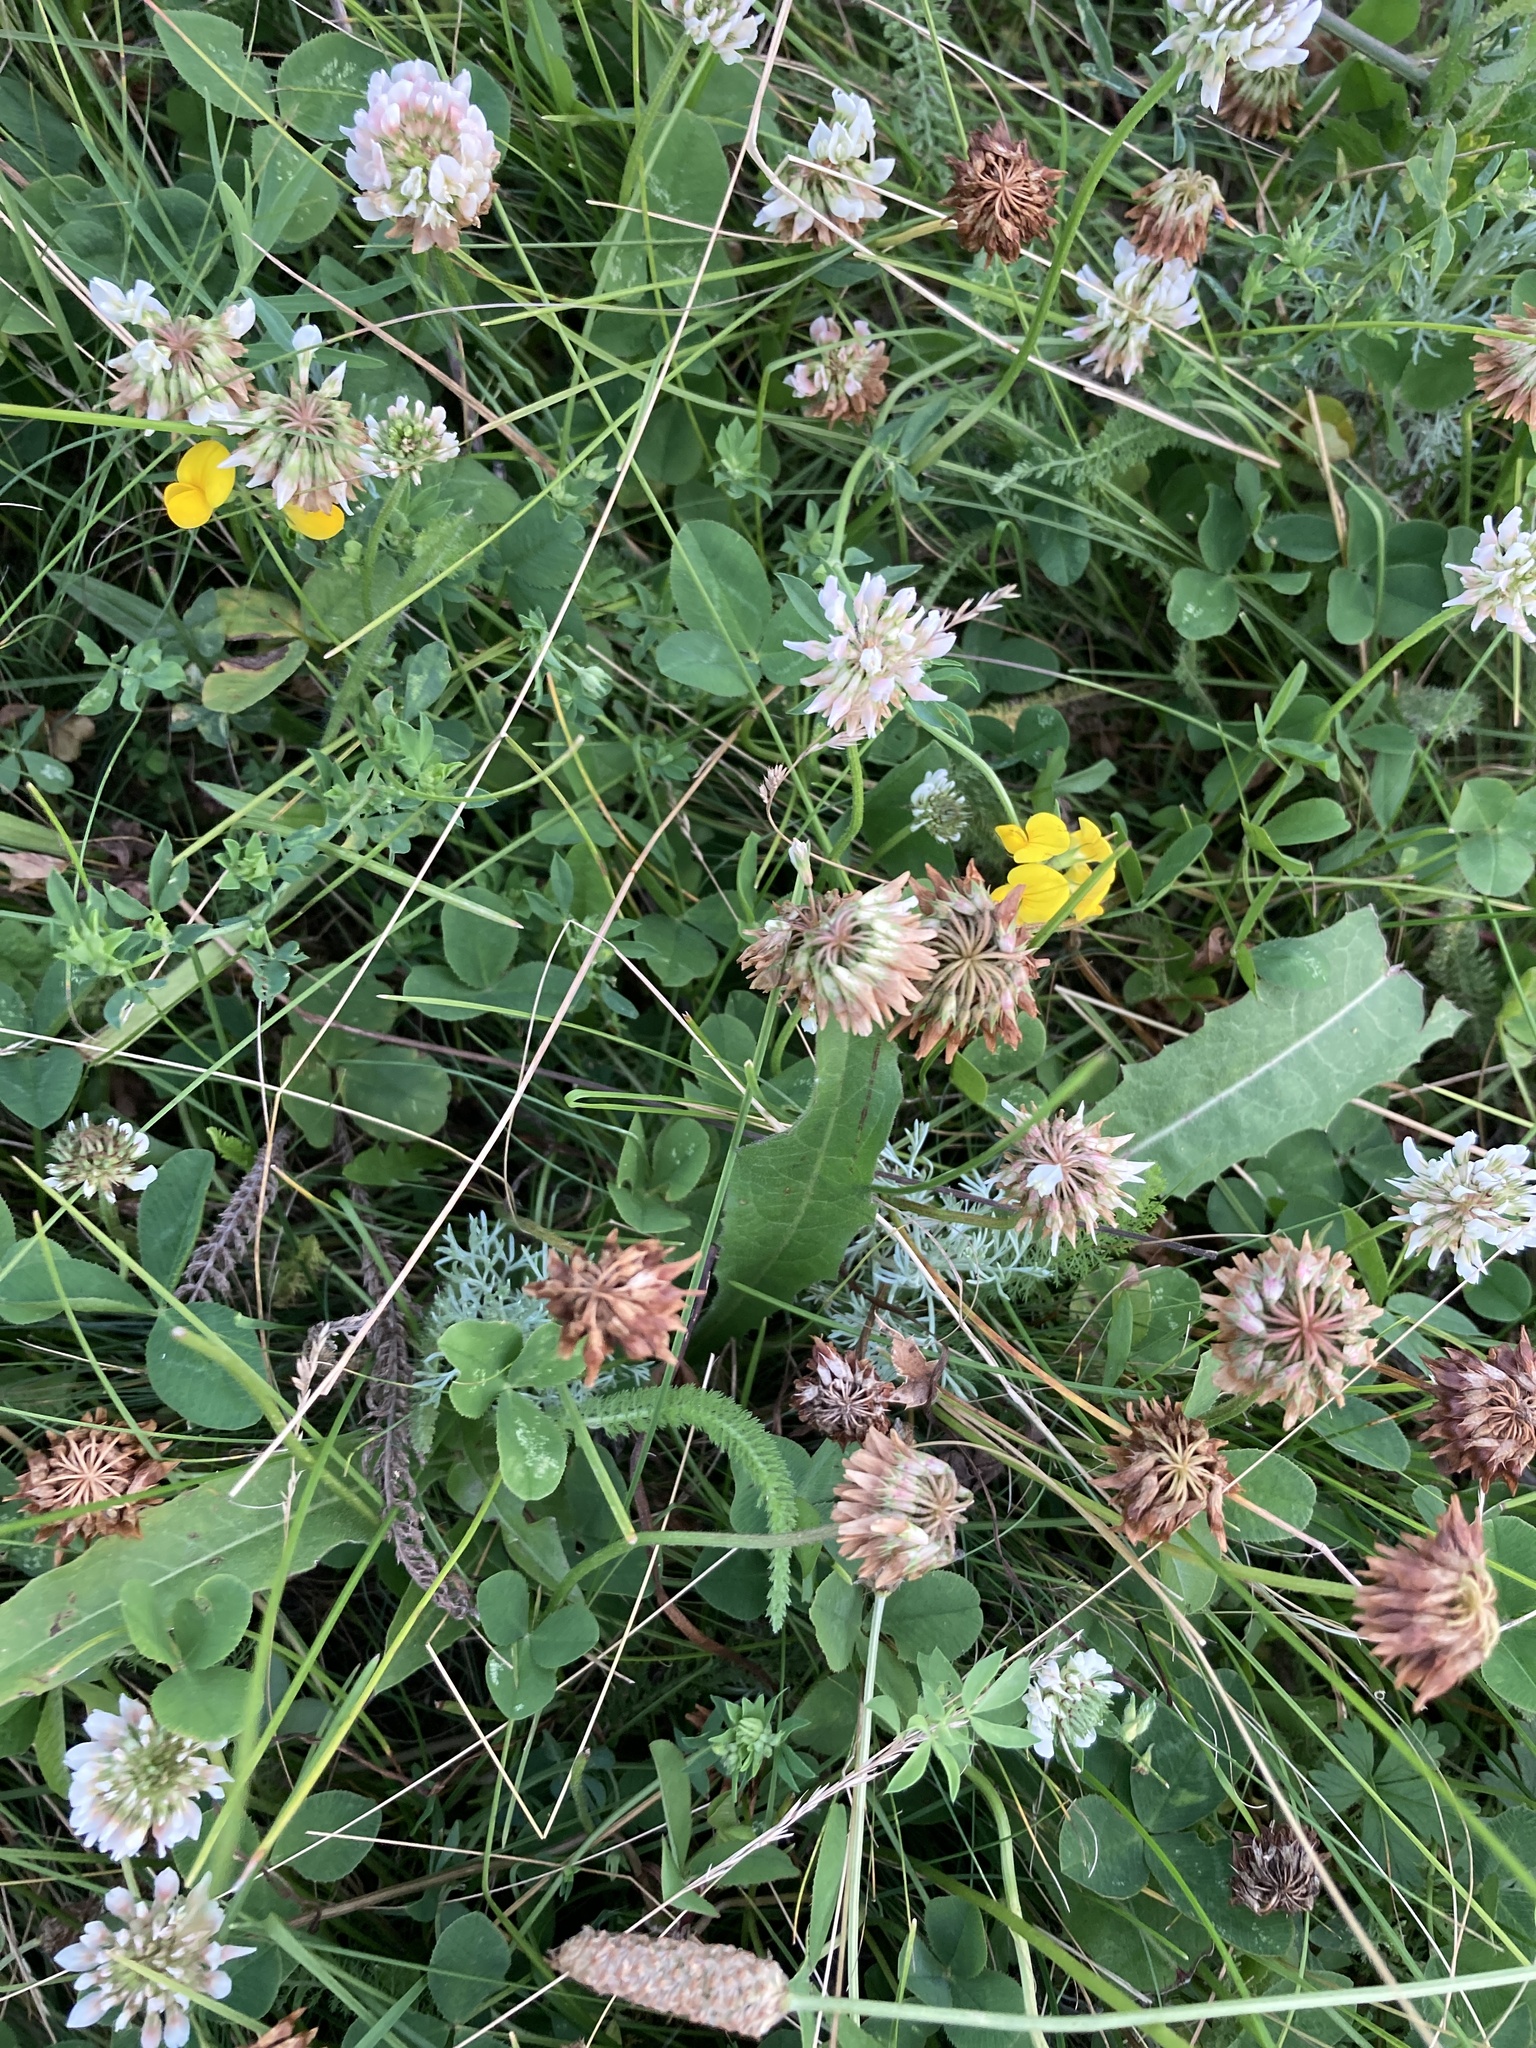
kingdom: Plantae
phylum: Tracheophyta
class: Magnoliopsida
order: Fabales
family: Fabaceae
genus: Trifolium
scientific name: Trifolium repens
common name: White clover
